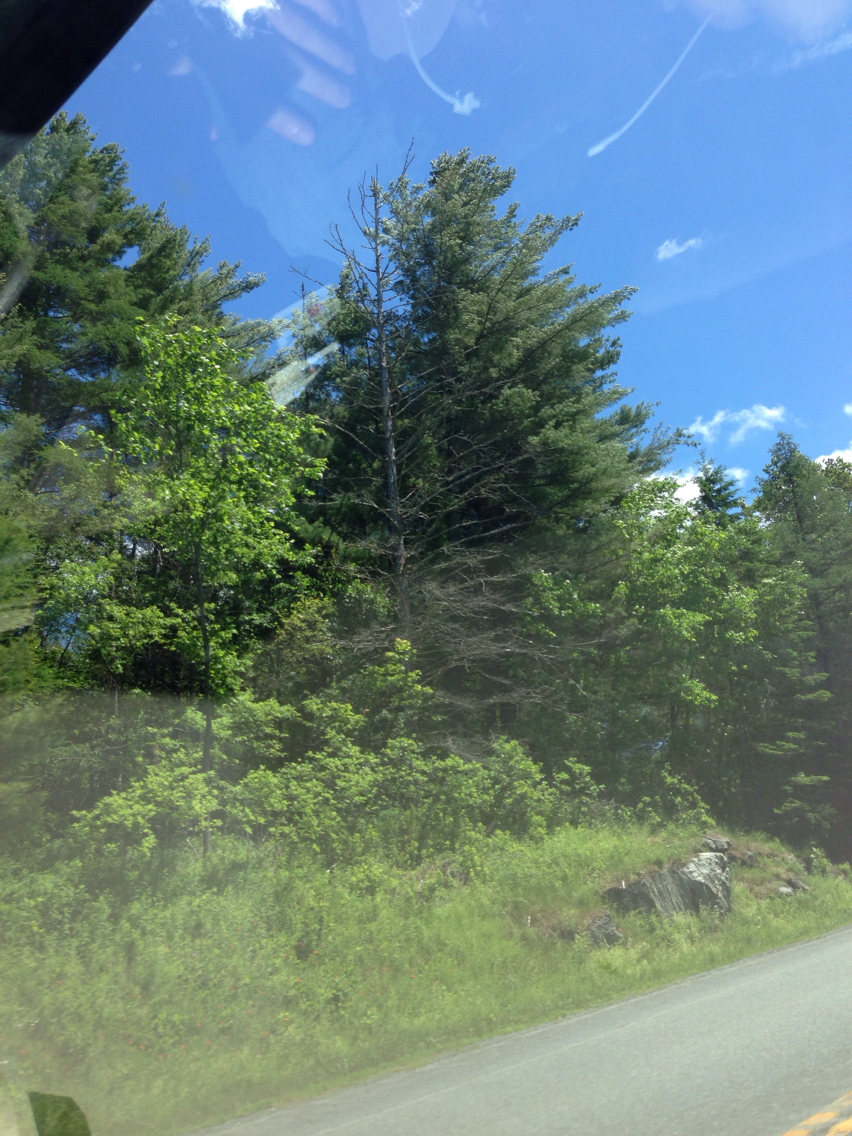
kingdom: Plantae
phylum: Tracheophyta
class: Pinopsida
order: Pinales
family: Pinaceae
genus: Pinus
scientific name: Pinus strobus
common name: Weymouth pine
